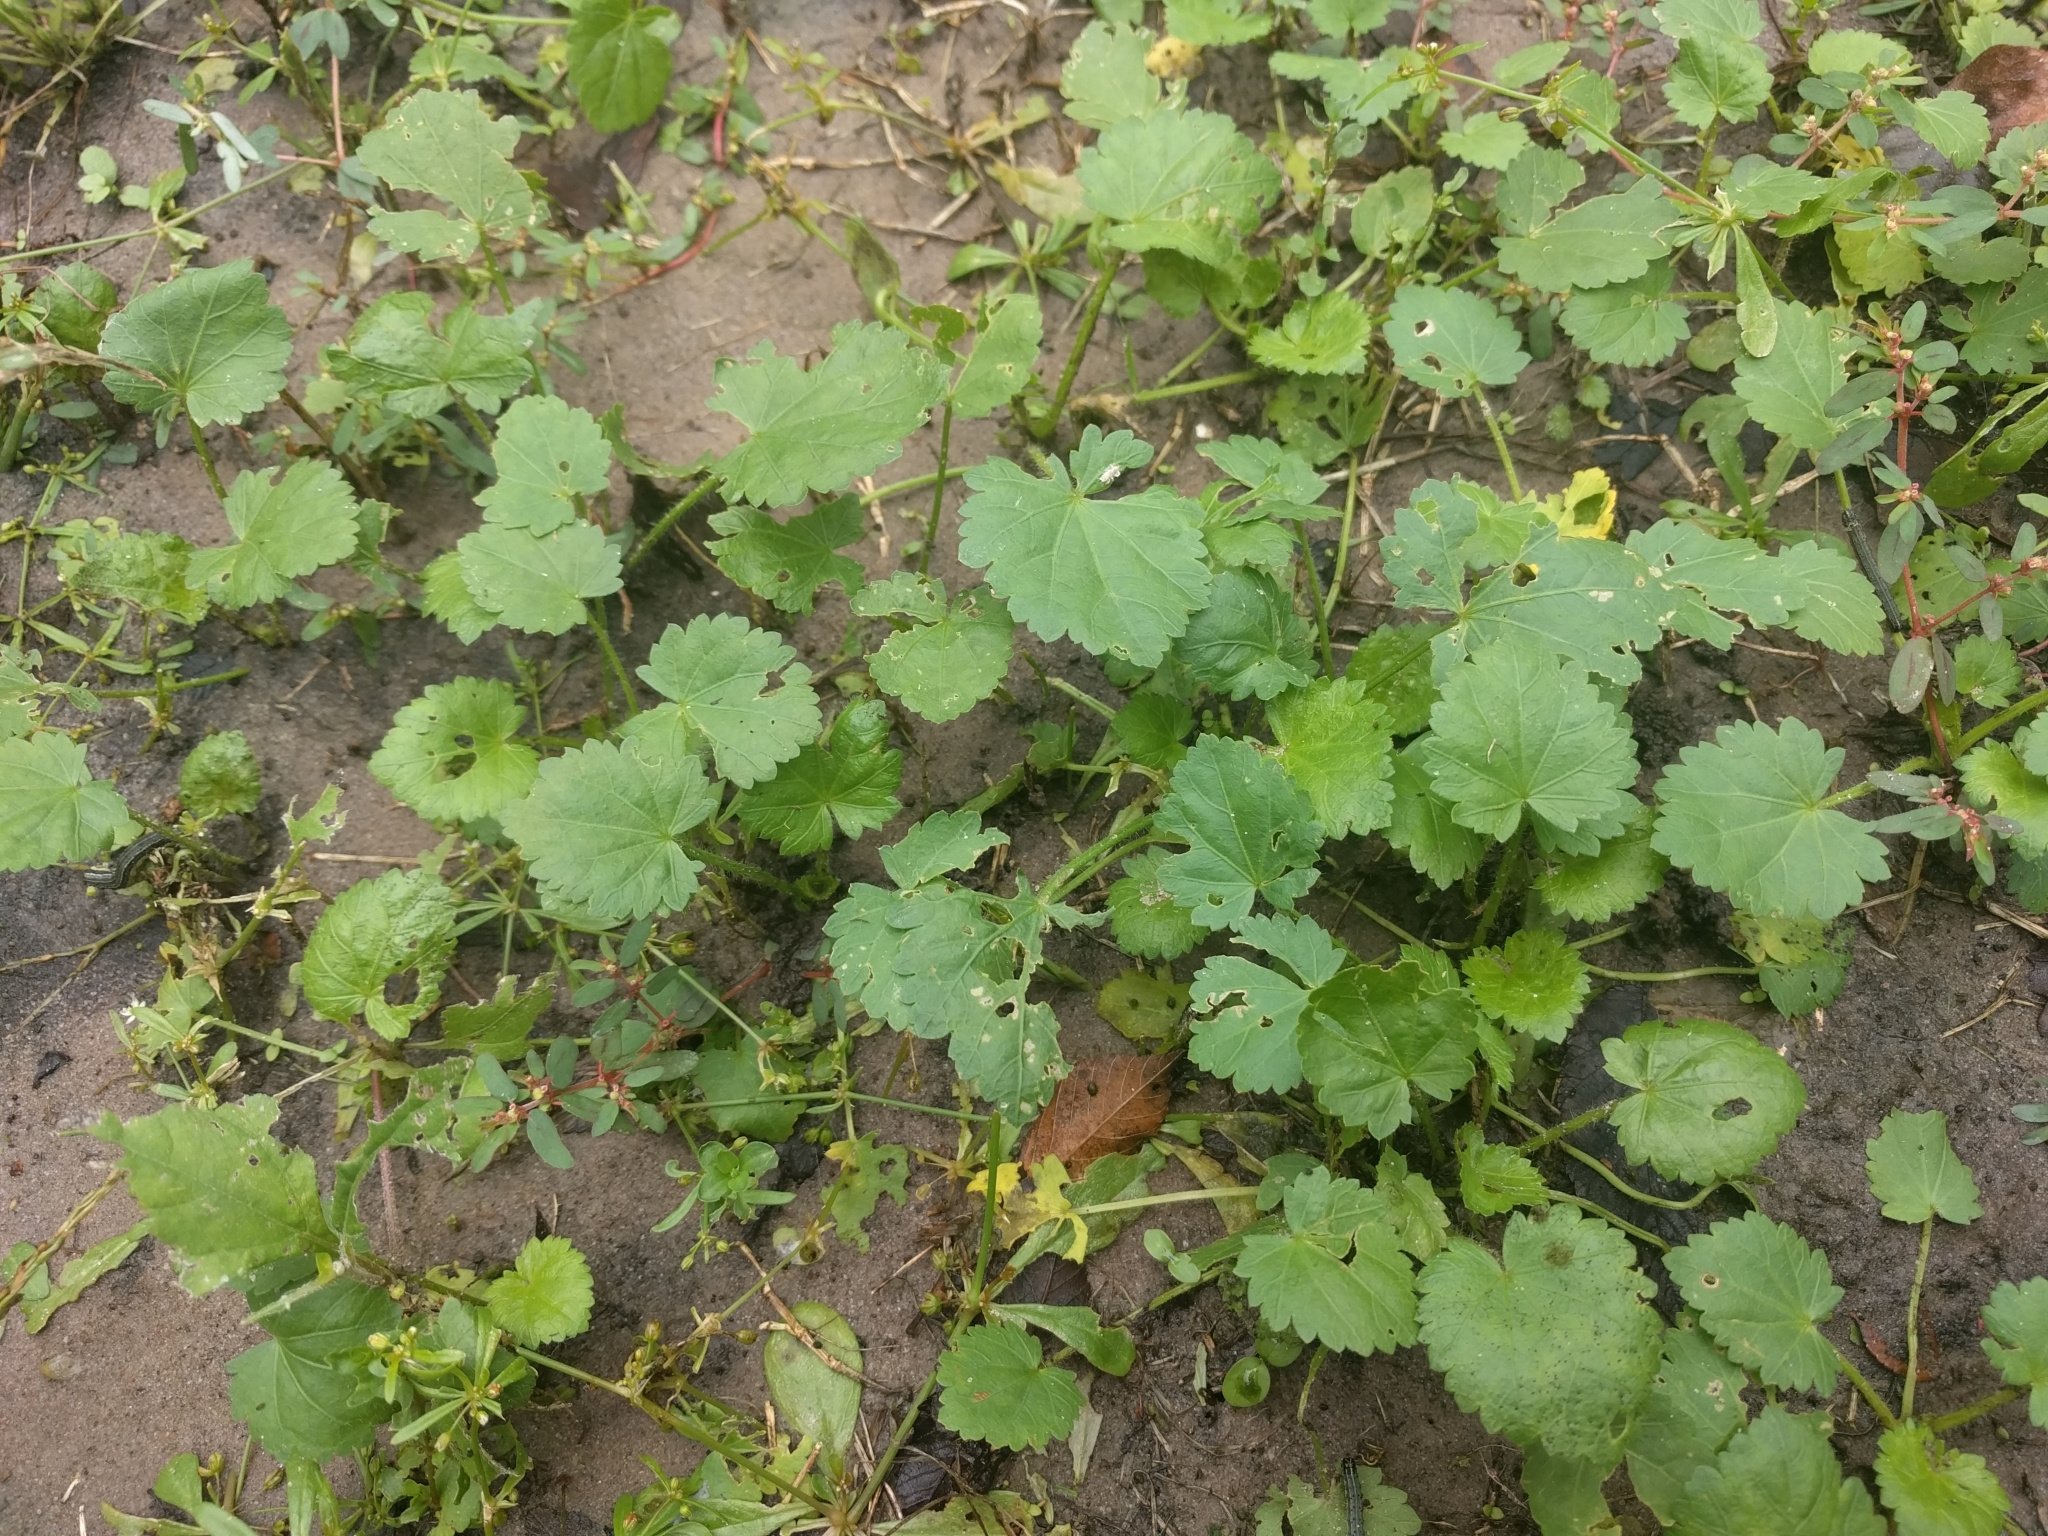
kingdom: Plantae
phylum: Tracheophyta
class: Magnoliopsida
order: Malvales
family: Malvaceae
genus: Modiola
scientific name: Modiola caroliniana
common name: Carolina bristlemallow
